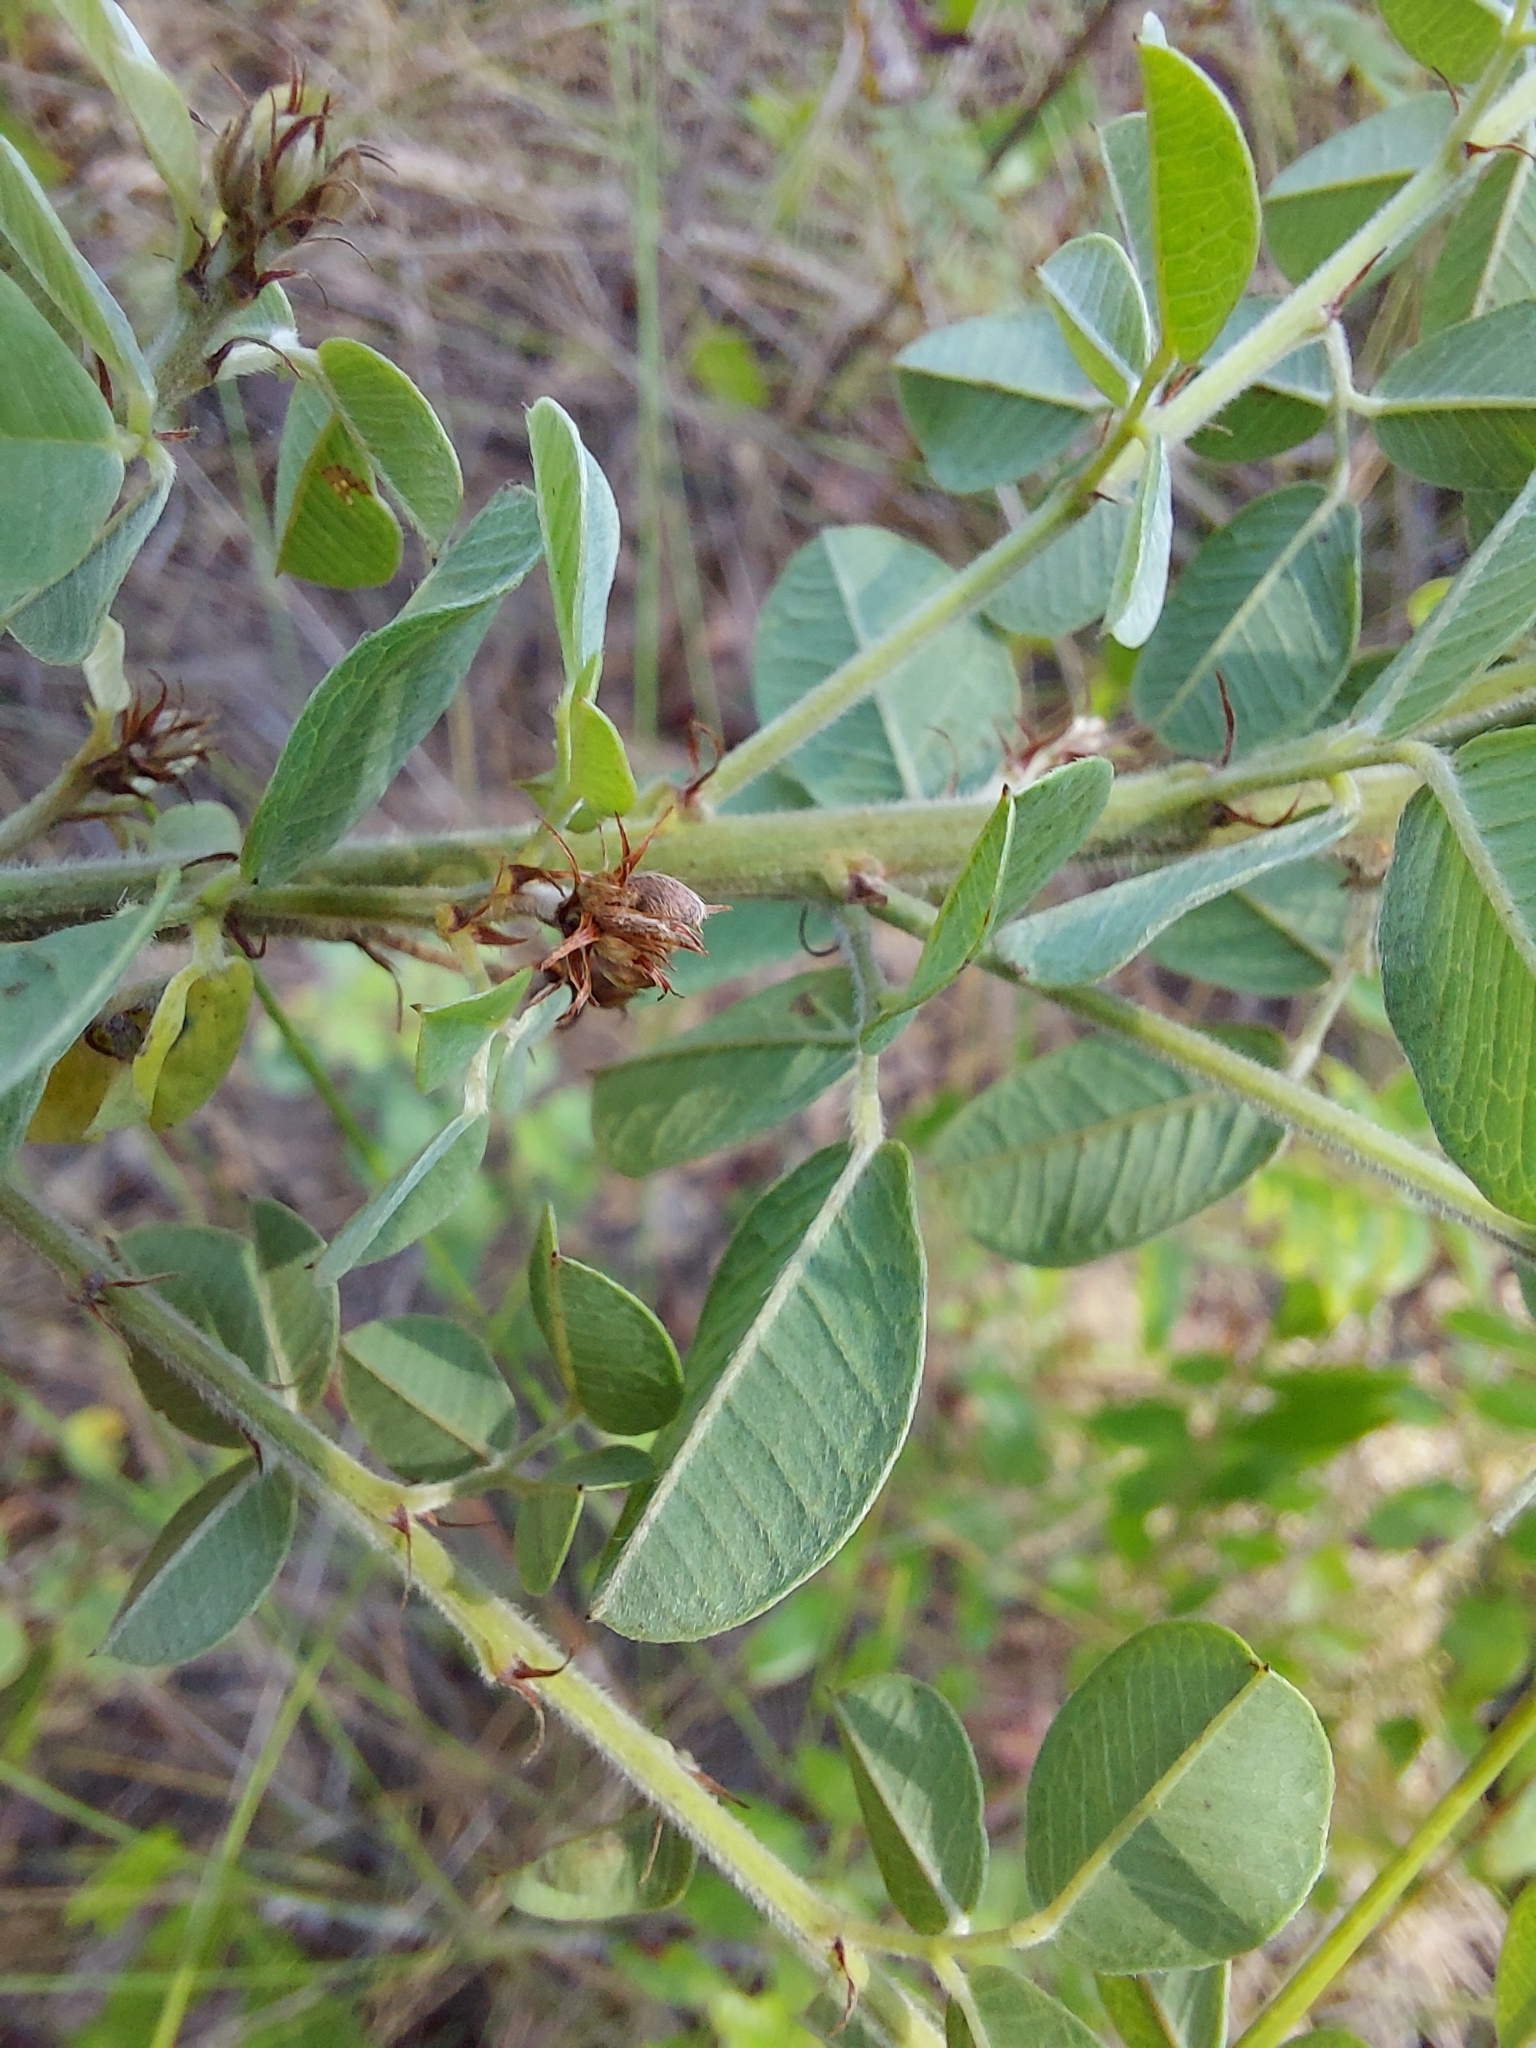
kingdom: Plantae
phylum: Tracheophyta
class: Magnoliopsida
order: Fabales
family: Fabaceae
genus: Lespedeza
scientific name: Lespedeza hirta
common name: Hairy lespedeza
